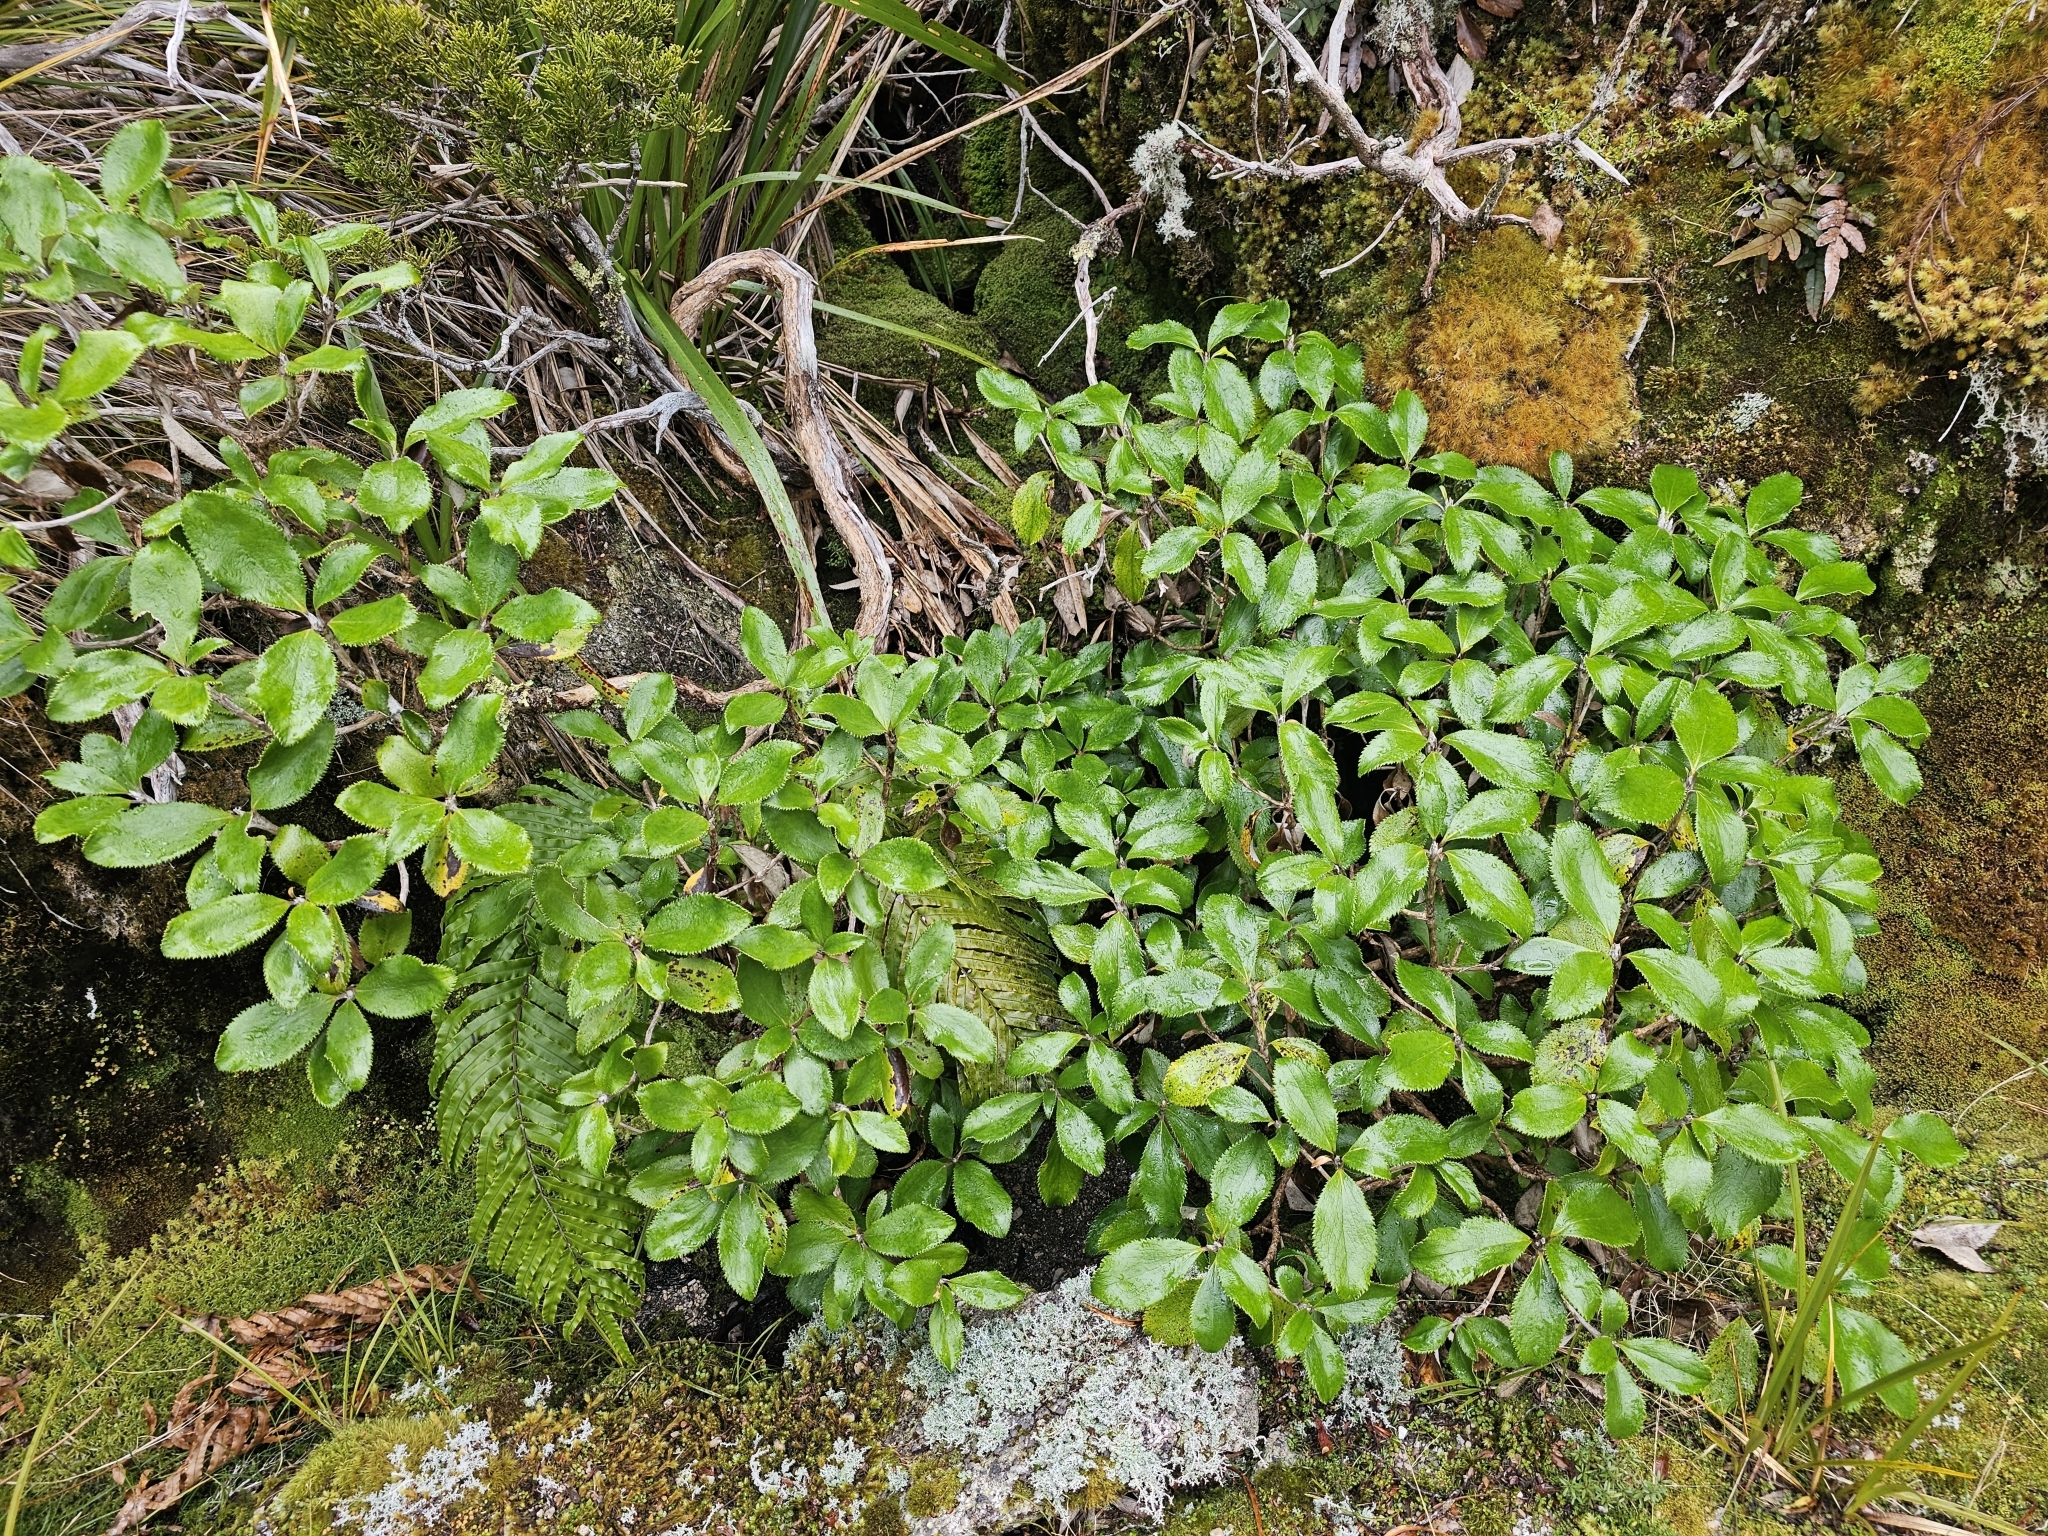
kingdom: Plantae
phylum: Tracheophyta
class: Magnoliopsida
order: Asterales
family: Asteraceae
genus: Macrolearia
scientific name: Macrolearia colensoi
